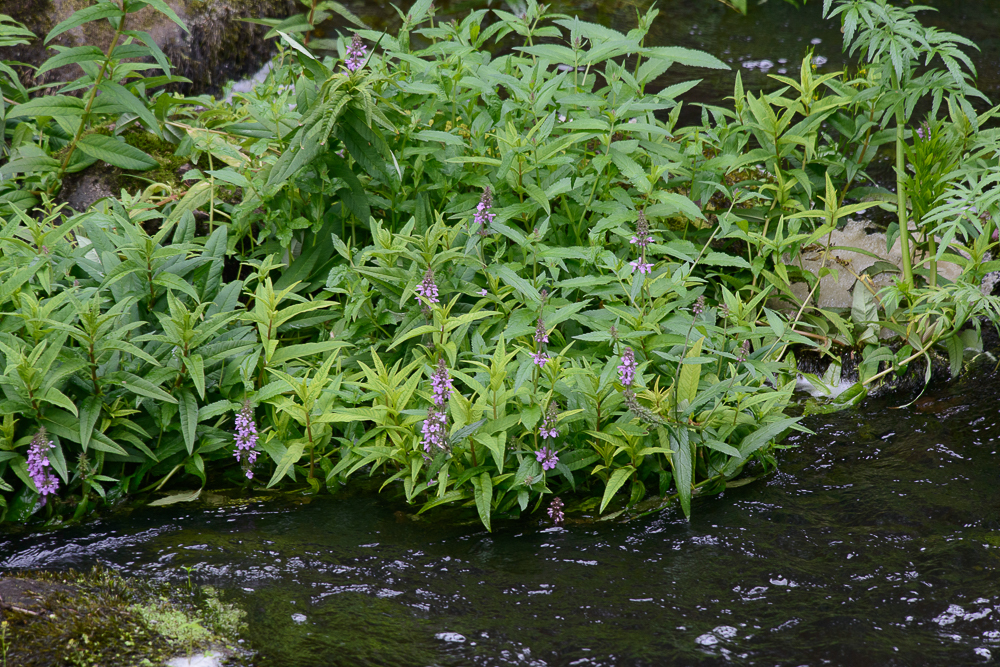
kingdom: Plantae
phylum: Tracheophyta
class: Magnoliopsida
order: Myrtales
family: Lythraceae
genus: Lythrum
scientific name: Lythrum salicaria
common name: Purple loosestrife
